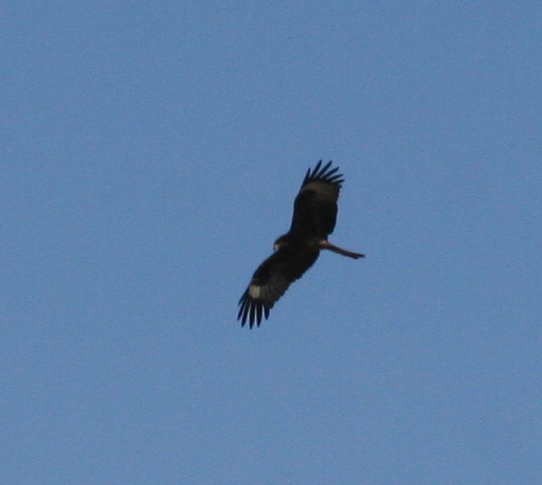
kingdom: Animalia
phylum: Chordata
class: Aves
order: Accipitriformes
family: Accipitridae
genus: Milvus
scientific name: Milvus migrans
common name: Black kite
